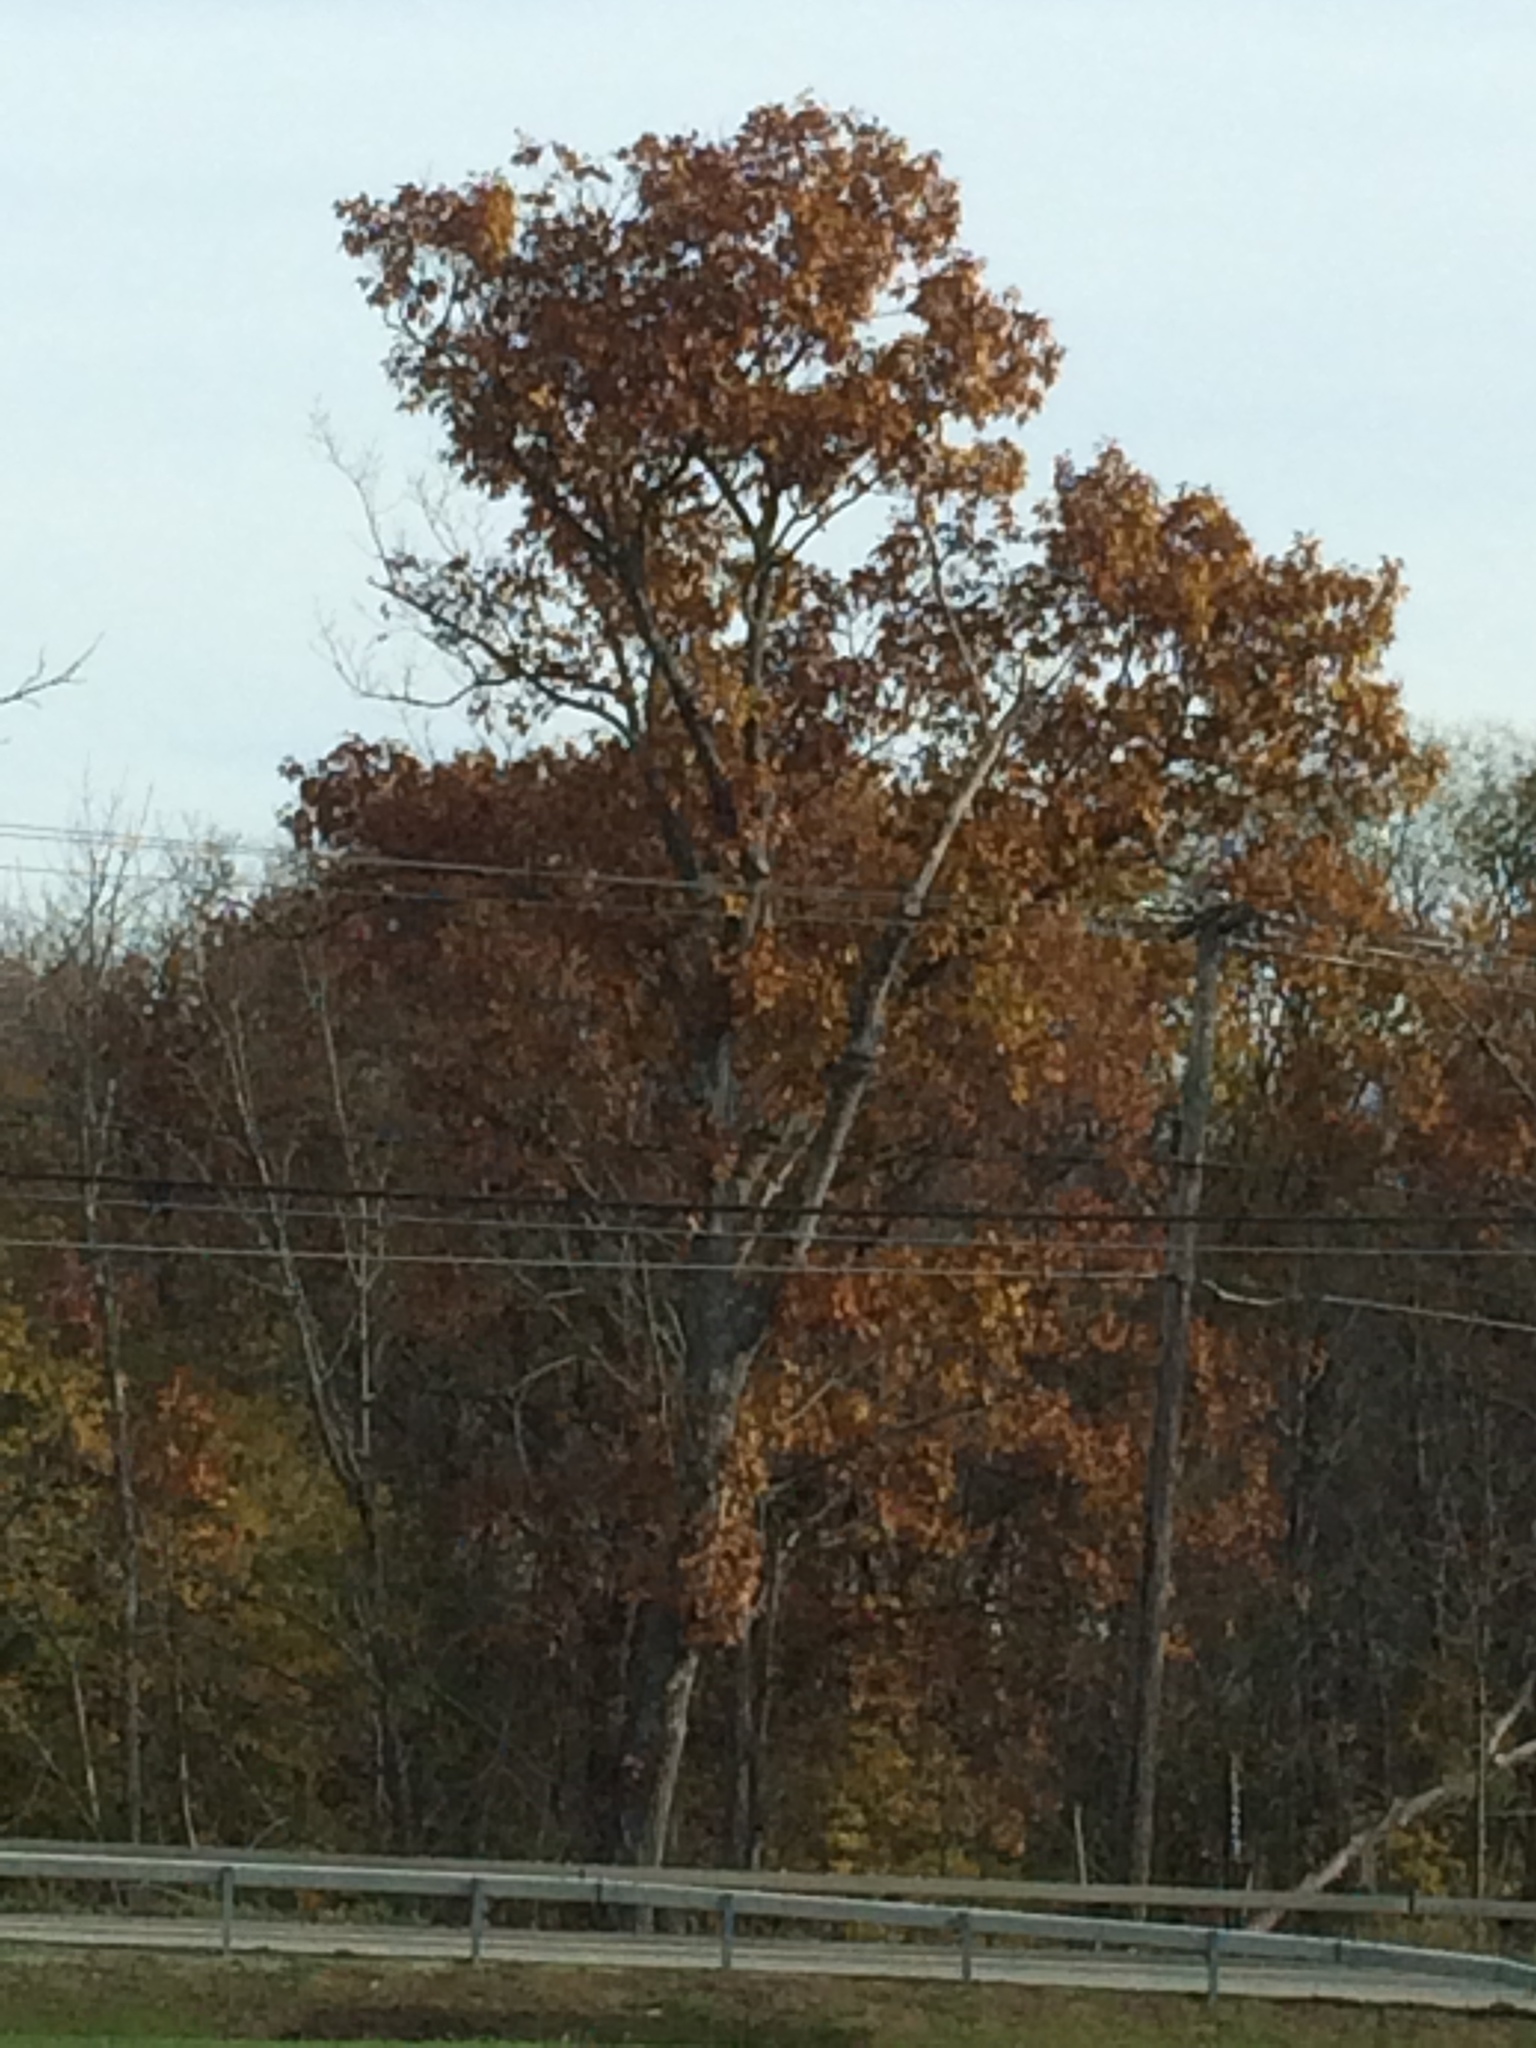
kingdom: Plantae
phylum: Tracheophyta
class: Magnoliopsida
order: Fagales
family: Fagaceae
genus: Quercus
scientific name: Quercus rubra
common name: Red oak
